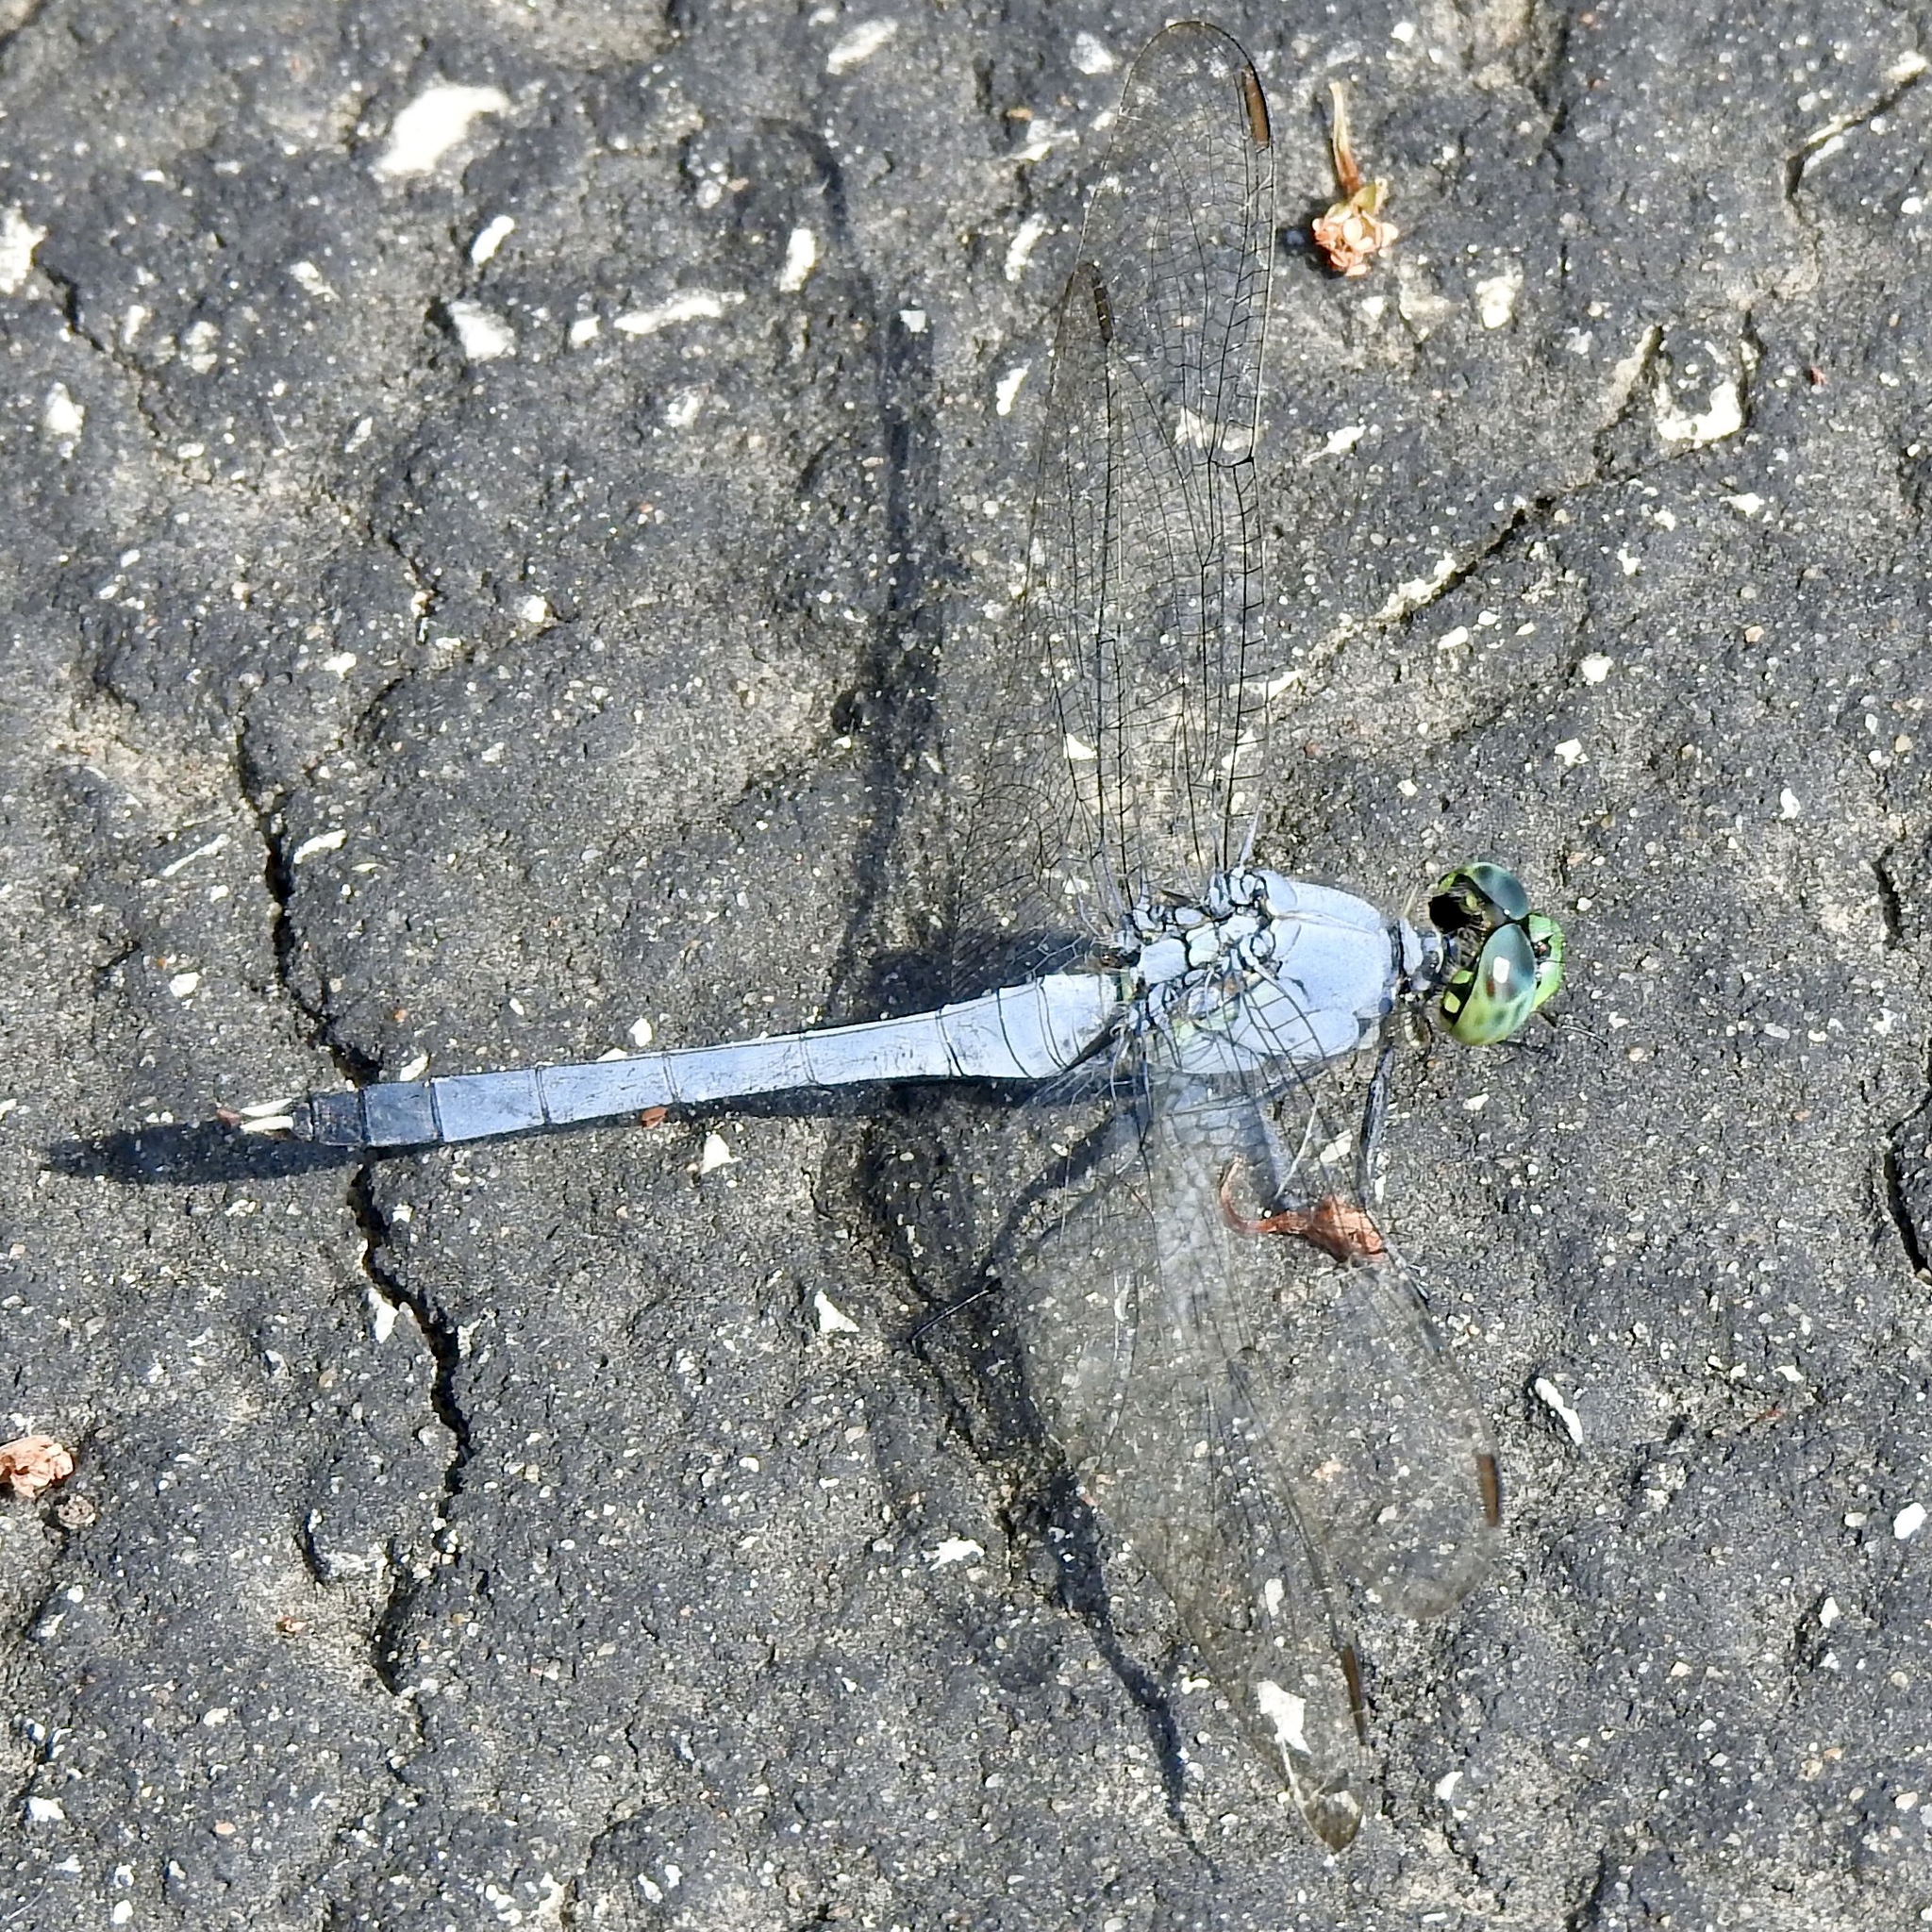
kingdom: Animalia
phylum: Arthropoda
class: Insecta
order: Odonata
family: Libellulidae
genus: Erythemis
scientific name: Erythemis simplicicollis
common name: Eastern pondhawk
